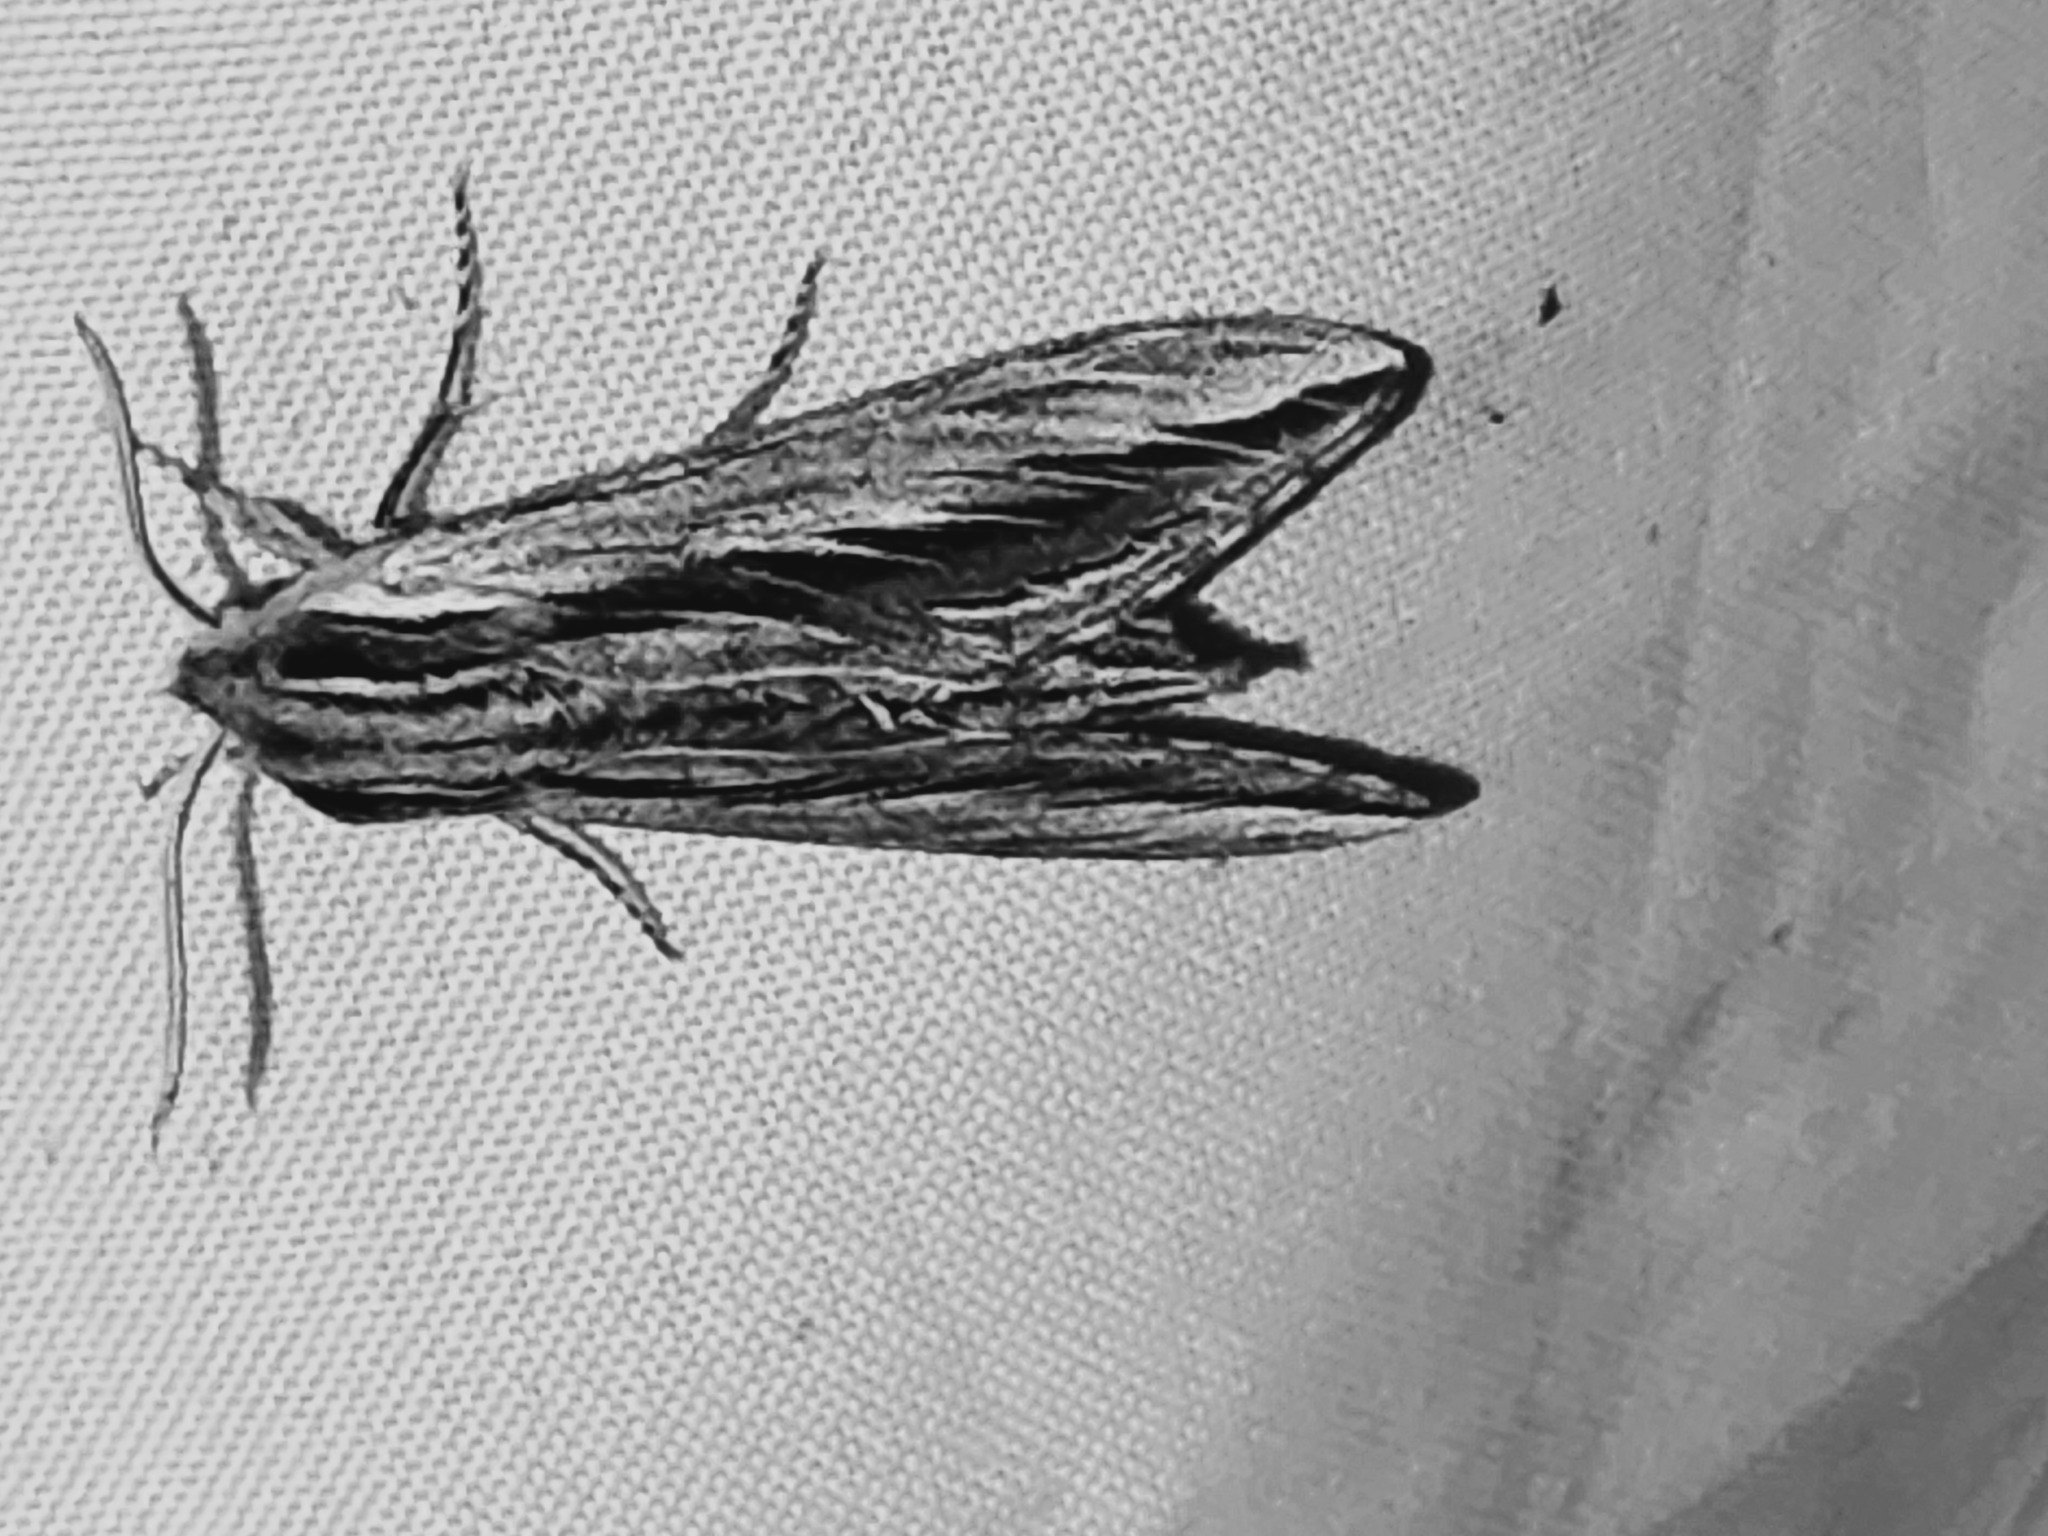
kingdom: Animalia
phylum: Arthropoda
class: Insecta
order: Lepidoptera
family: Sphingidae
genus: Sphinx
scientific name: Sphinx vanbuskirki
